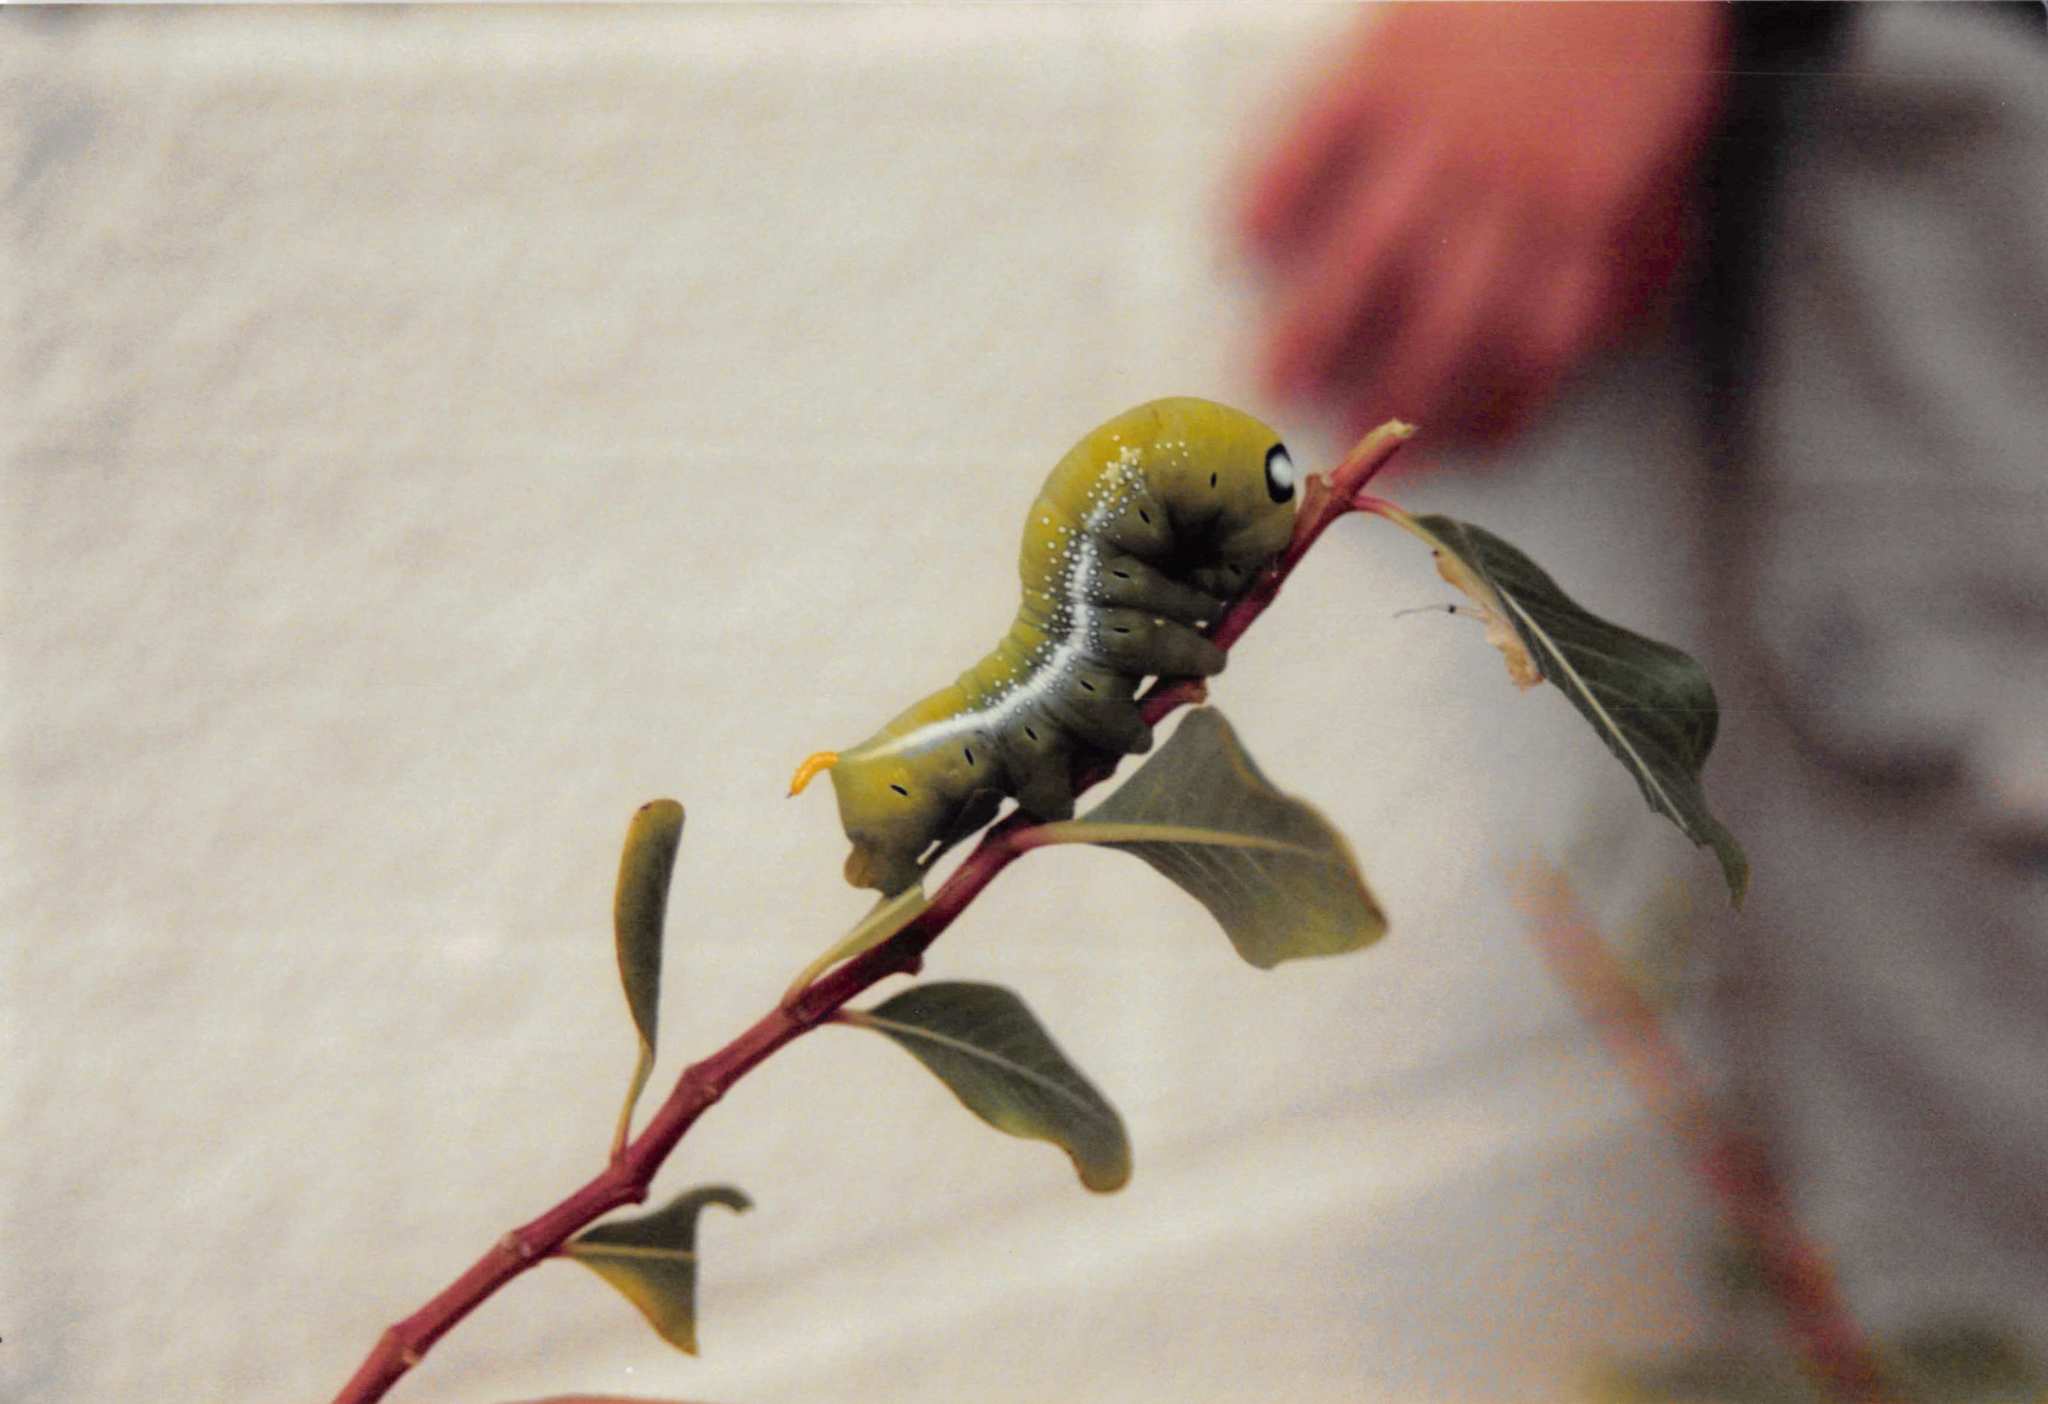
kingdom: Animalia
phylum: Arthropoda
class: Insecta
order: Lepidoptera
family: Sphingidae
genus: Daphnis
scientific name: Daphnis nerii
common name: Oleander hawk-moth
